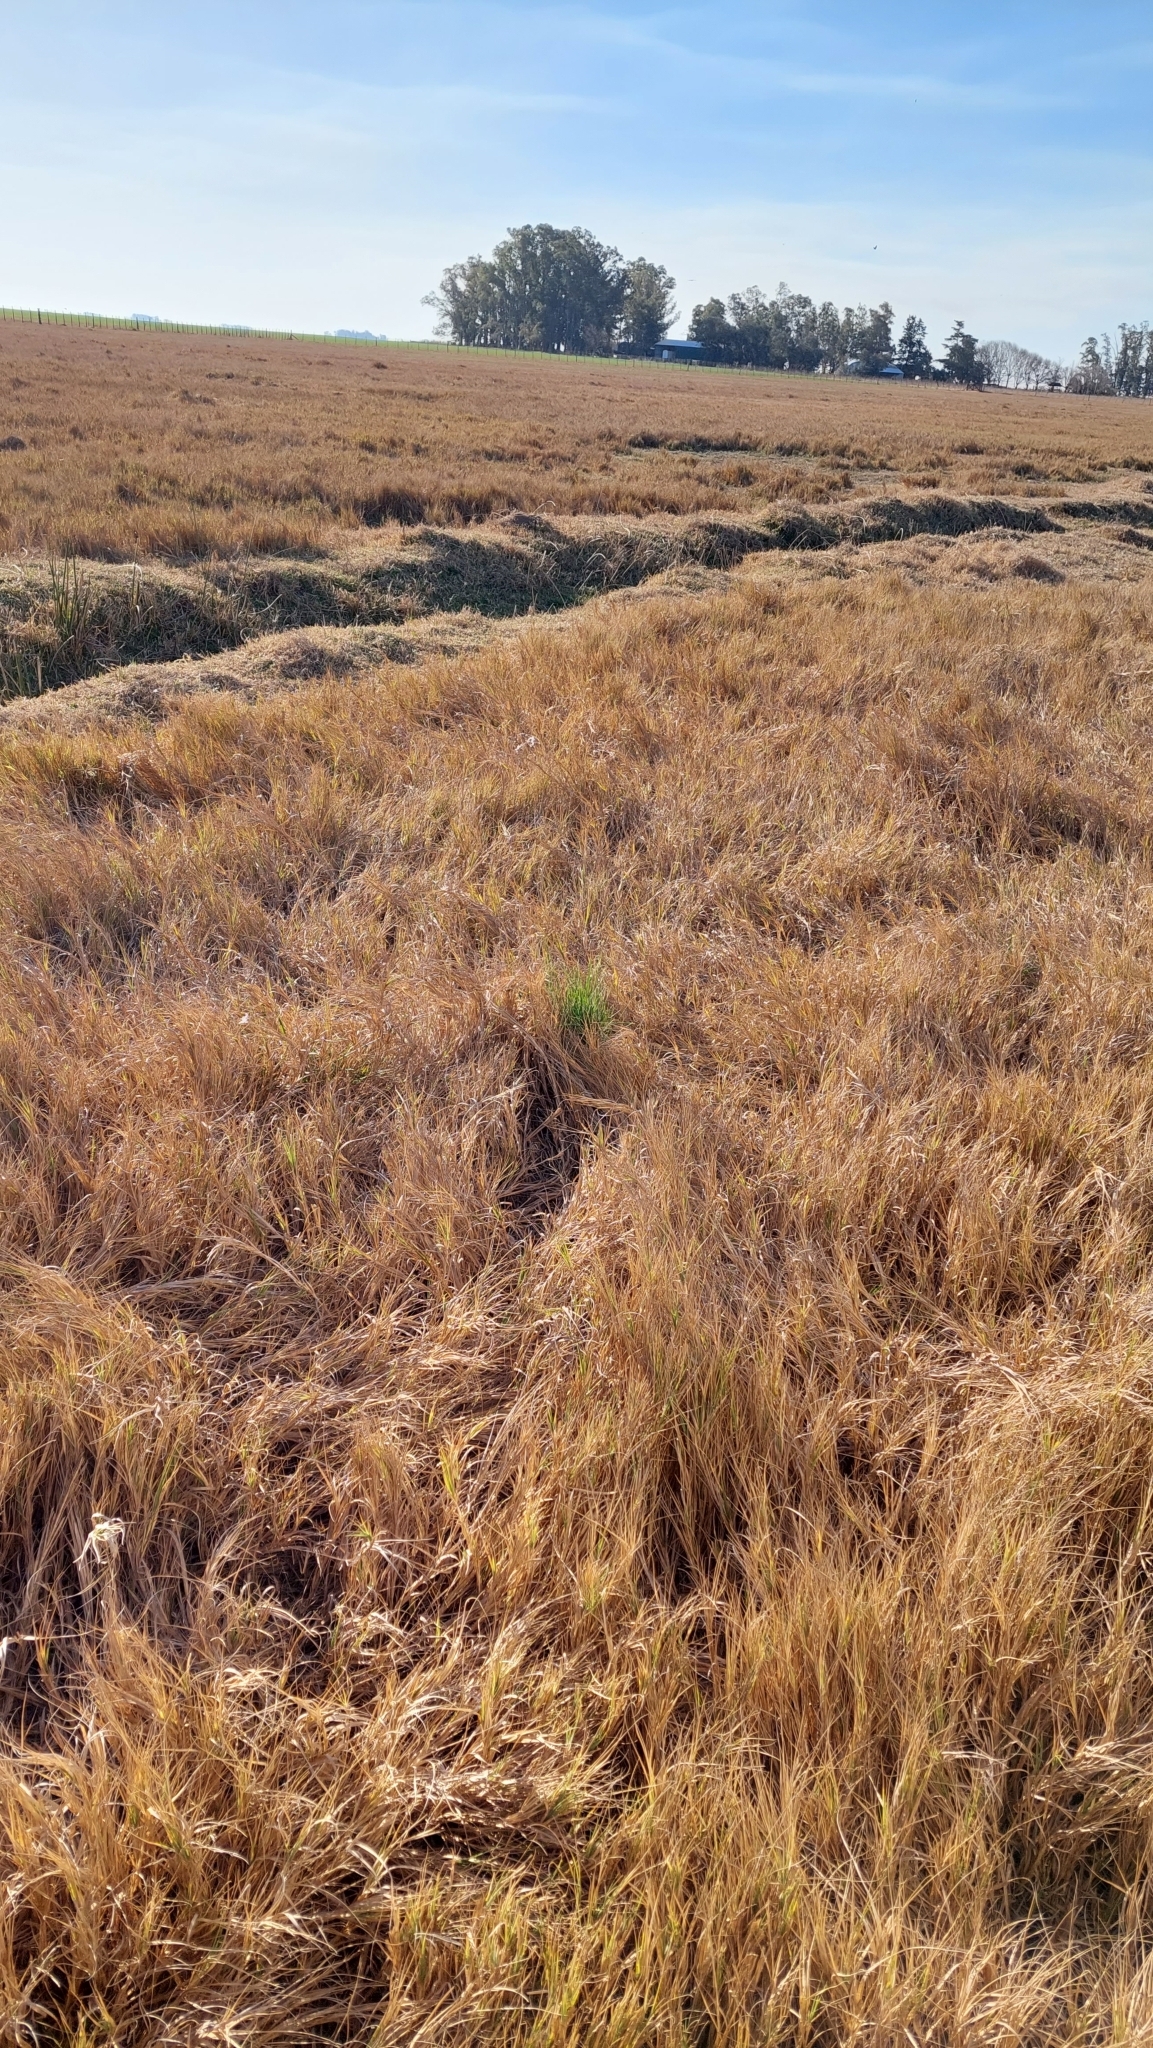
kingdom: Plantae
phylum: Tracheophyta
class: Liliopsida
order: Poales
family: Poaceae
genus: Distichlis
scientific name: Distichlis spicata
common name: Saltgrass
